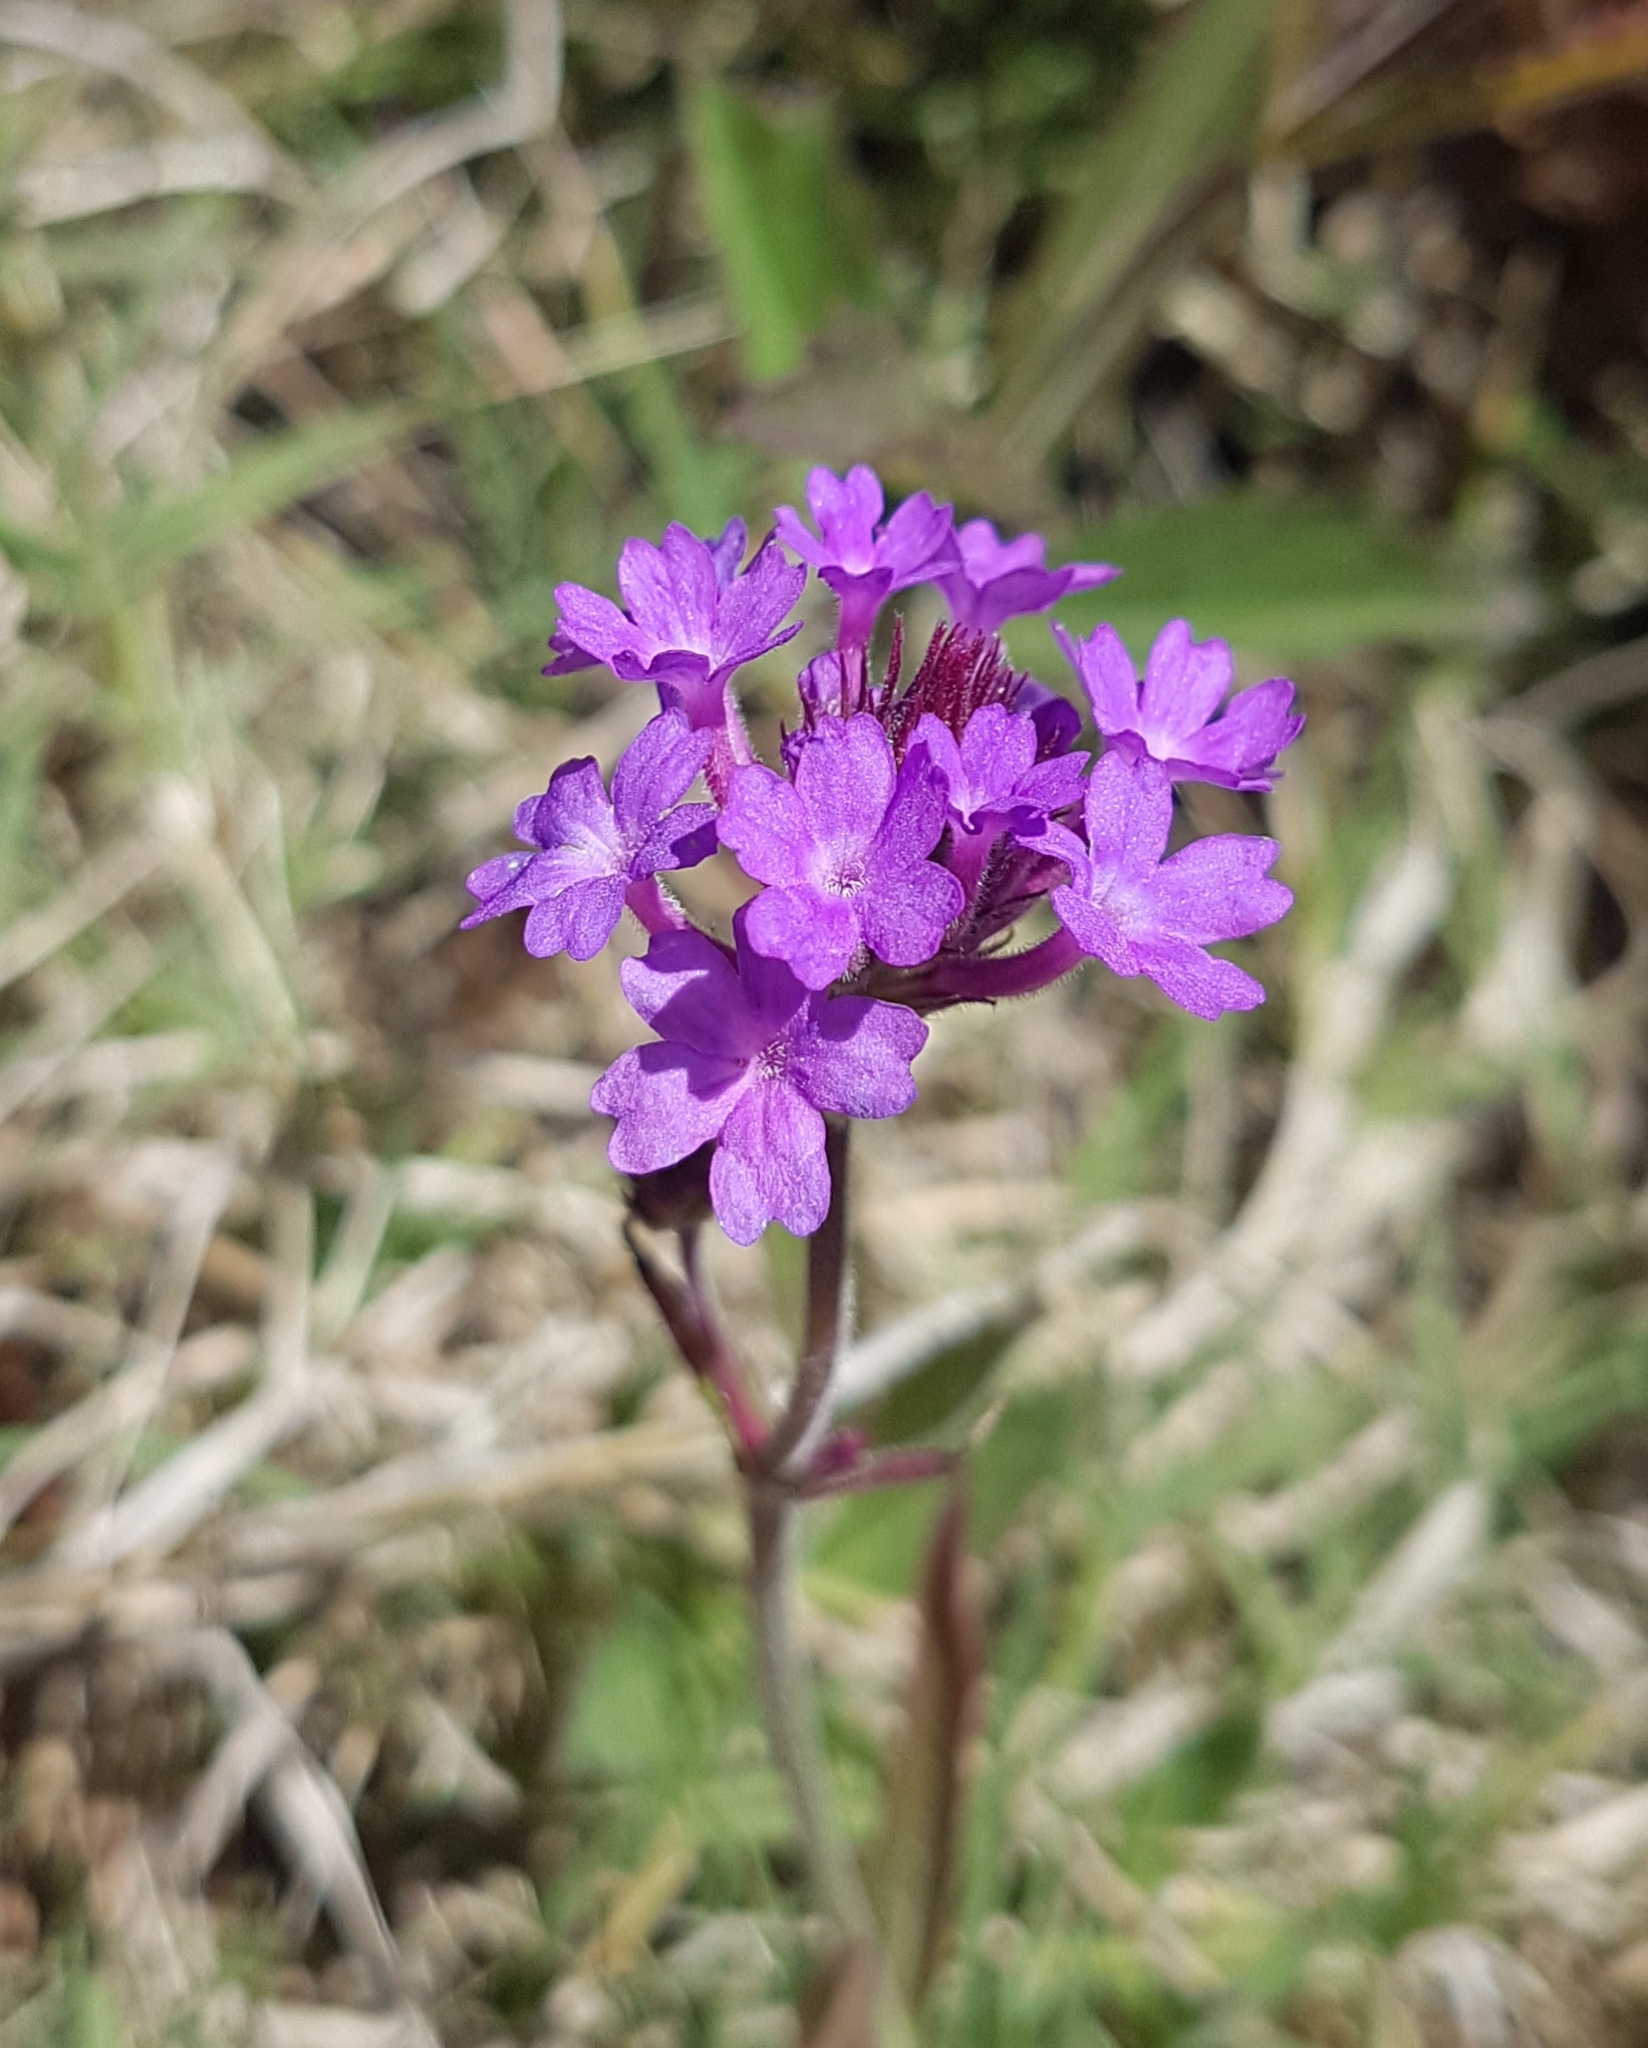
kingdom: Plantae
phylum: Tracheophyta
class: Magnoliopsida
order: Lamiales
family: Verbenaceae
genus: Verbena
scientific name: Verbena rigida
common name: Slender vervain
